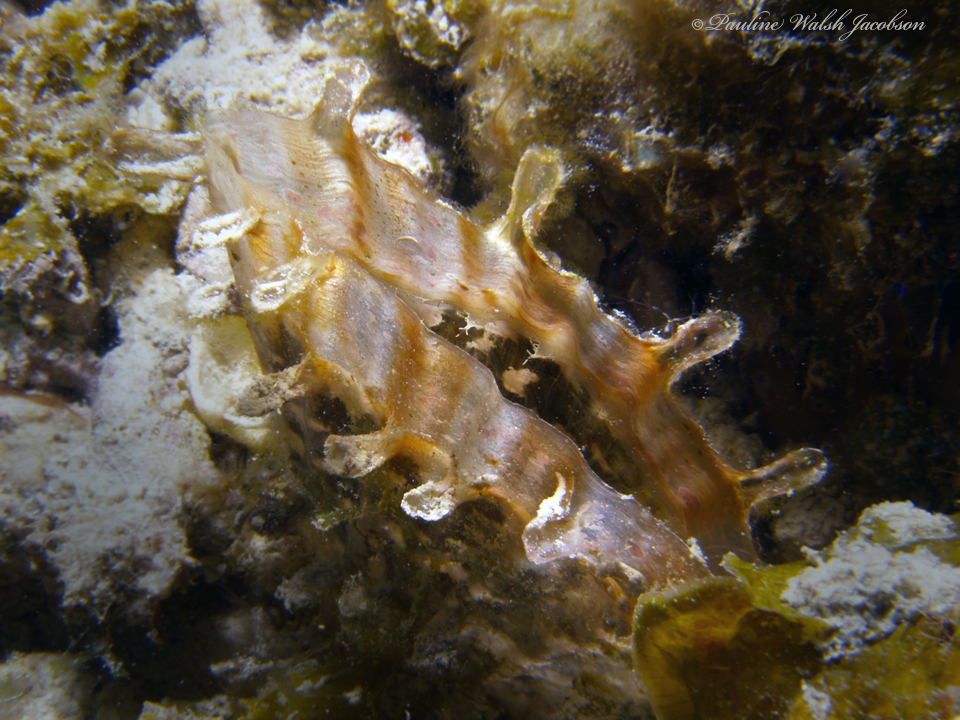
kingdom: Animalia
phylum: Mollusca
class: Bivalvia
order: Ostreida
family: Pinnidae
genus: Pinna
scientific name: Pinna carnea
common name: Amber penshell
